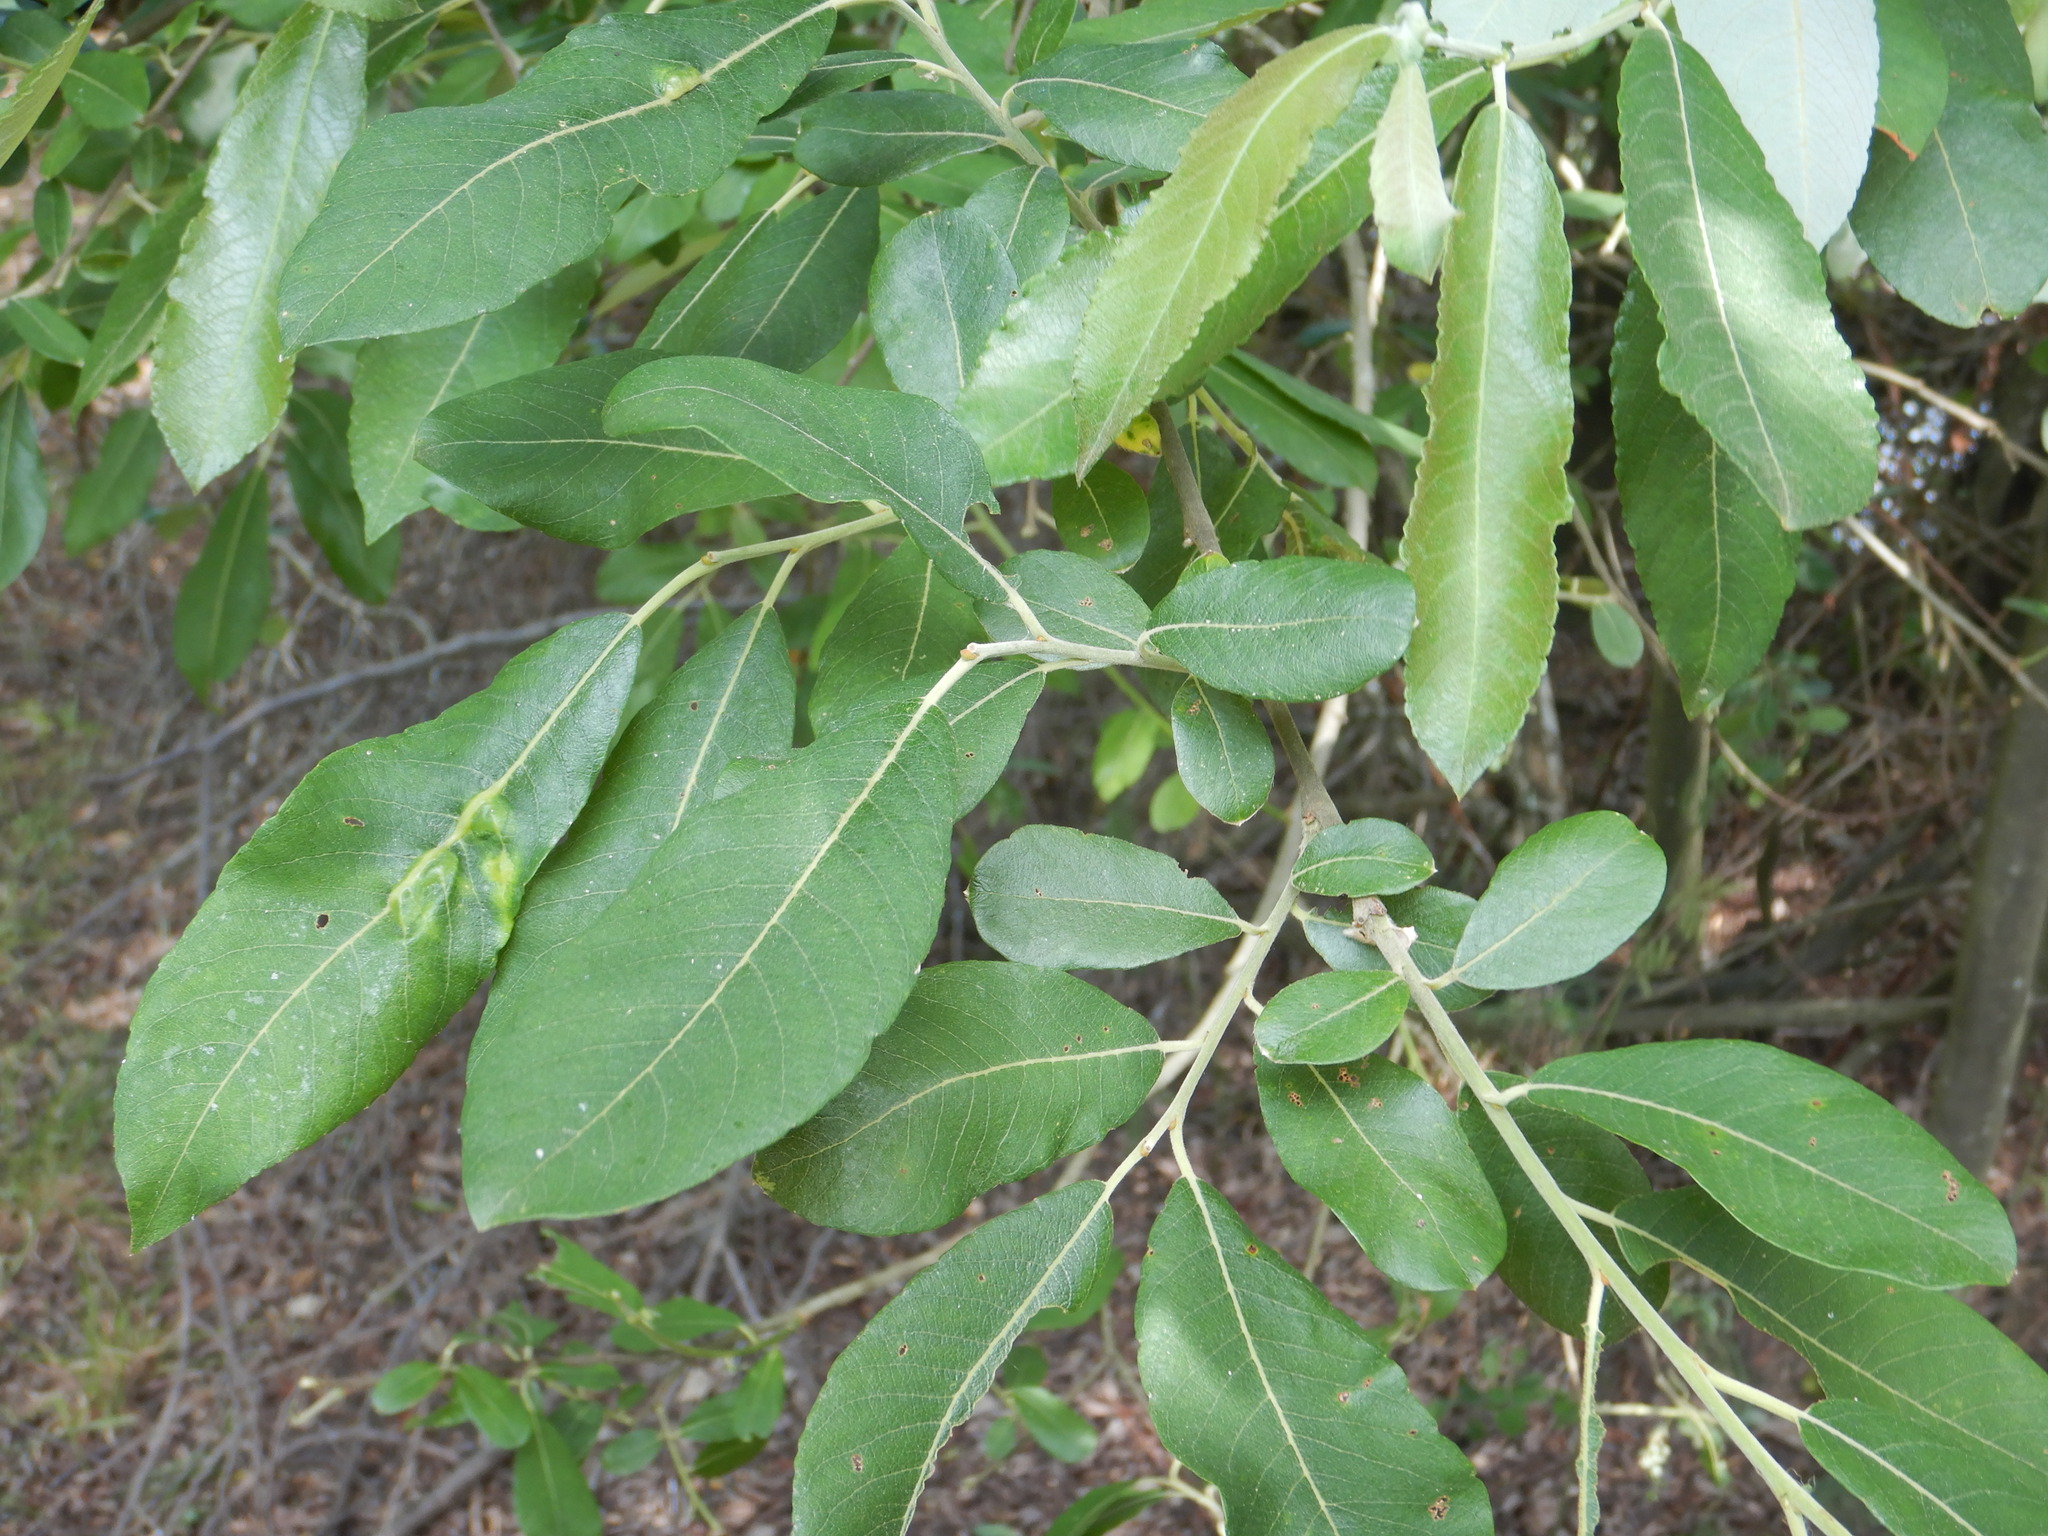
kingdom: Plantae
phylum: Tracheophyta
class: Magnoliopsida
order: Malpighiales
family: Salicaceae
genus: Salix
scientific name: Salix atrocinerea
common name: Rusty willow
